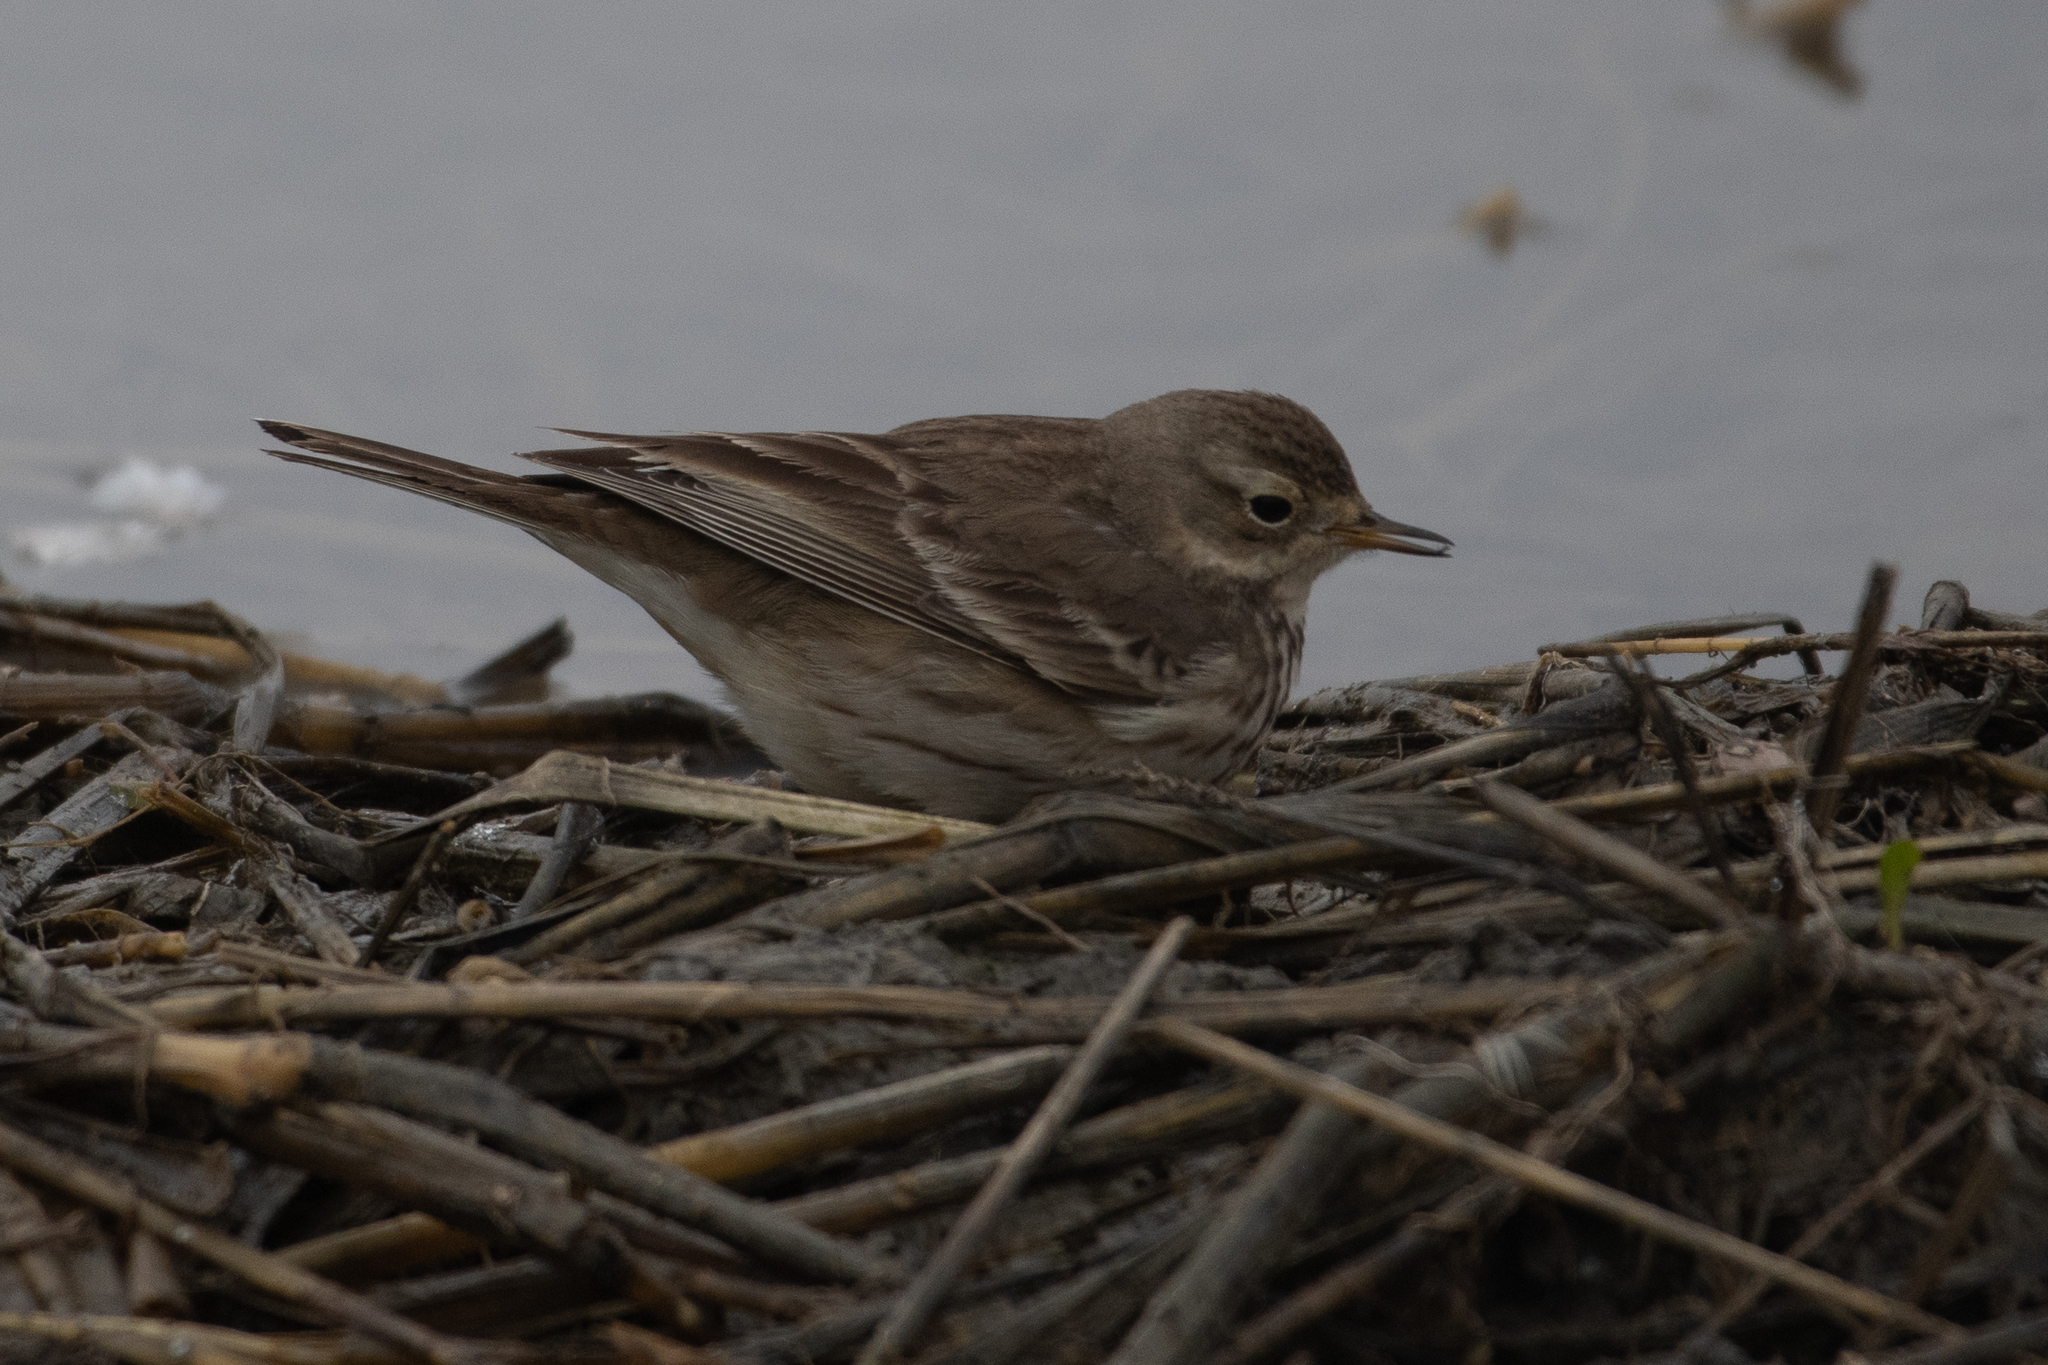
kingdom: Animalia
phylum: Chordata
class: Aves
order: Passeriformes
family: Motacillidae
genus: Anthus
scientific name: Anthus rubescens
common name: Buff-bellied pipit
